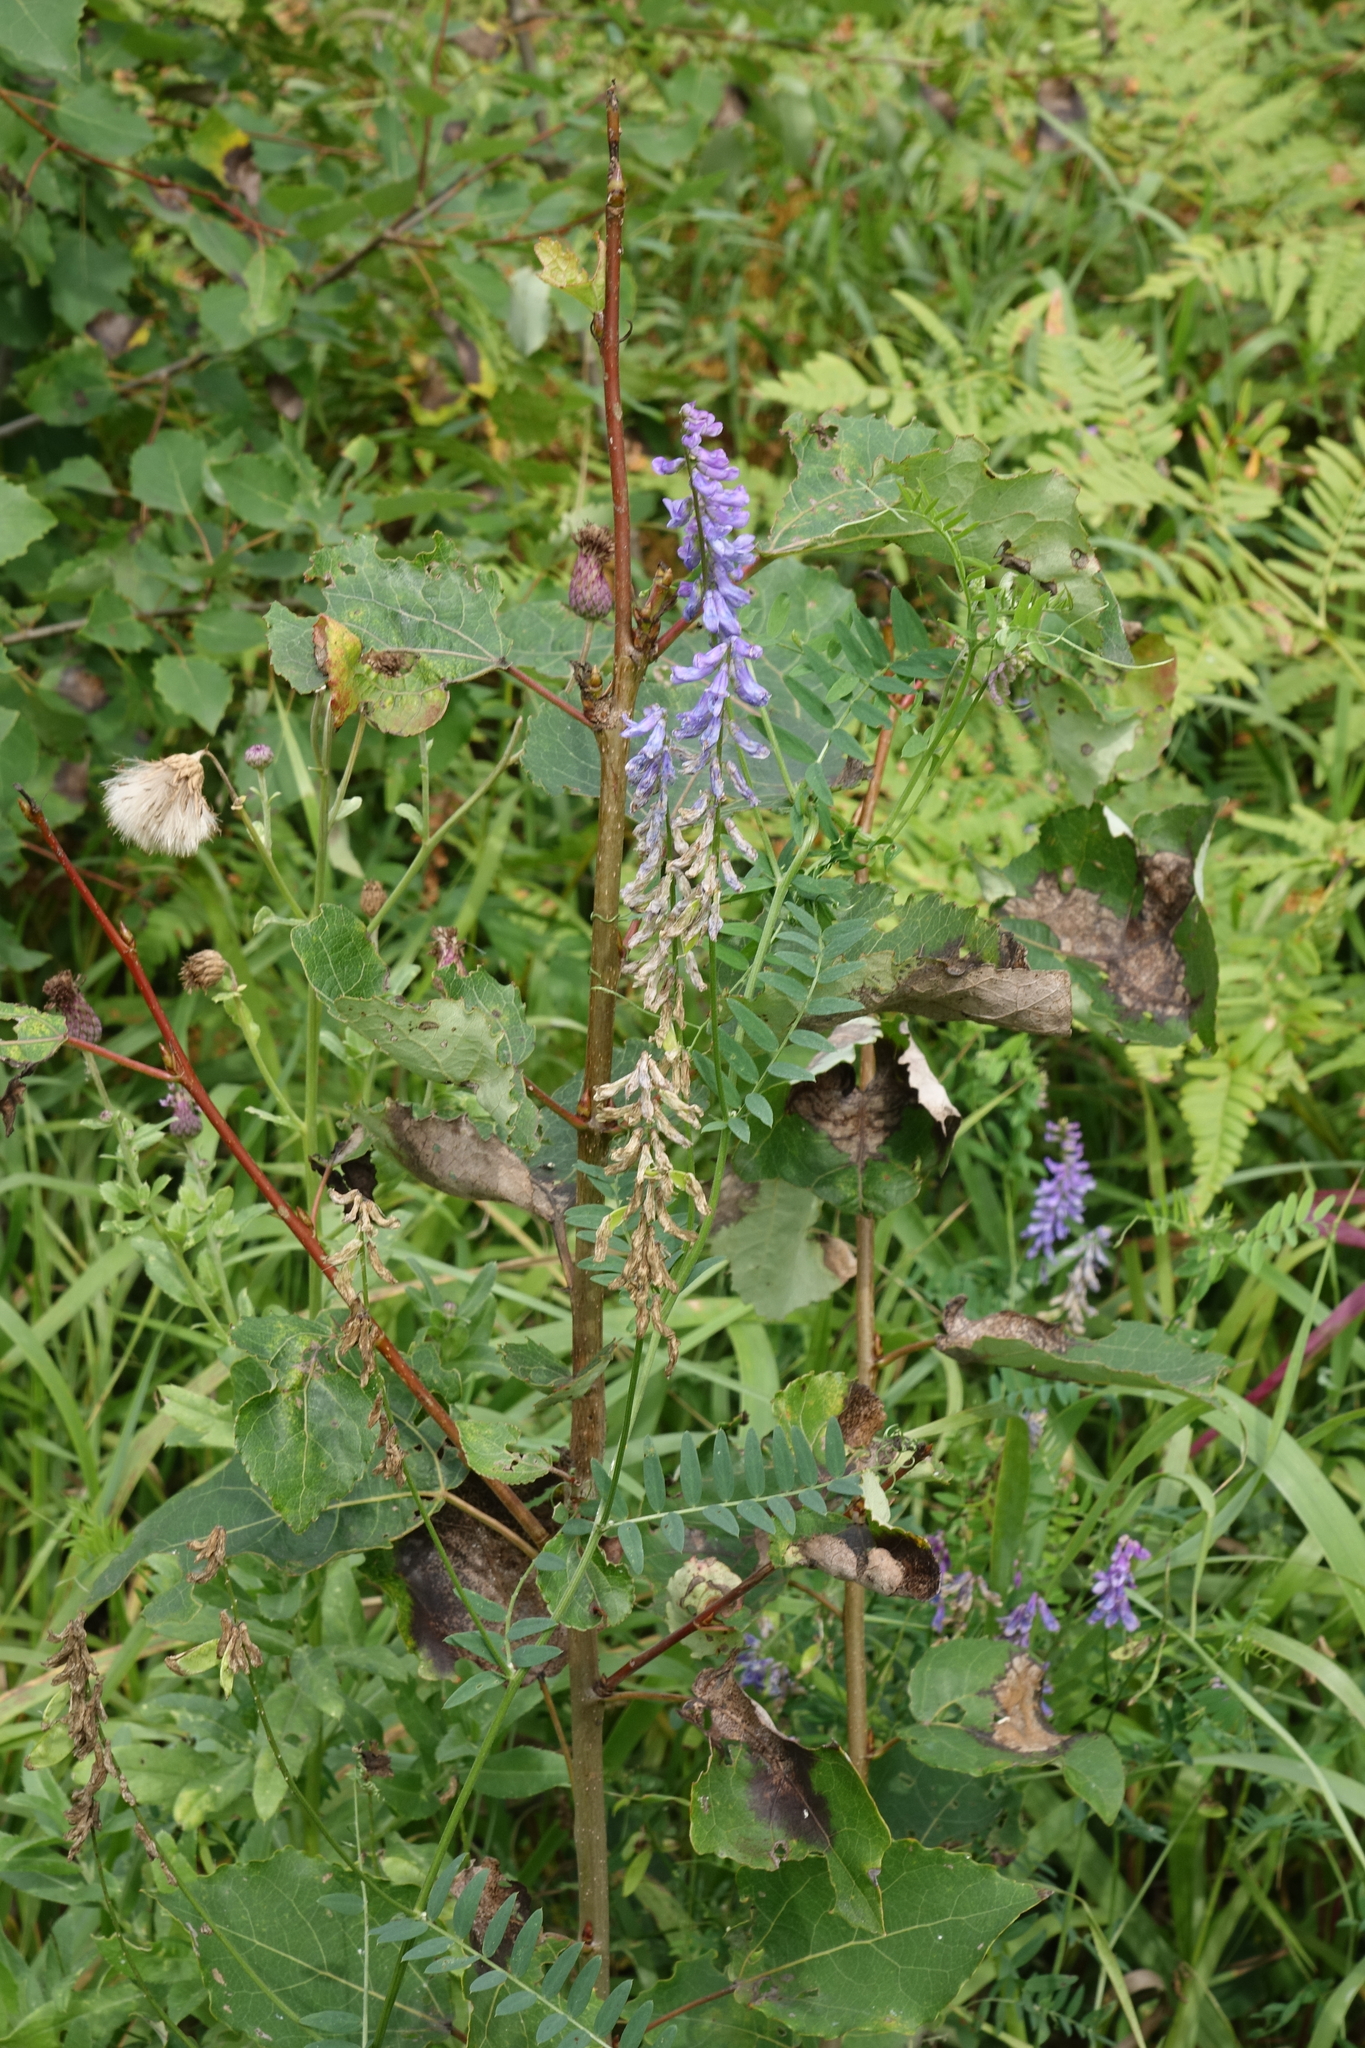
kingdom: Plantae
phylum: Tracheophyta
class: Magnoliopsida
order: Fabales
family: Fabaceae
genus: Vicia
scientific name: Vicia cracca
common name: Bird vetch
